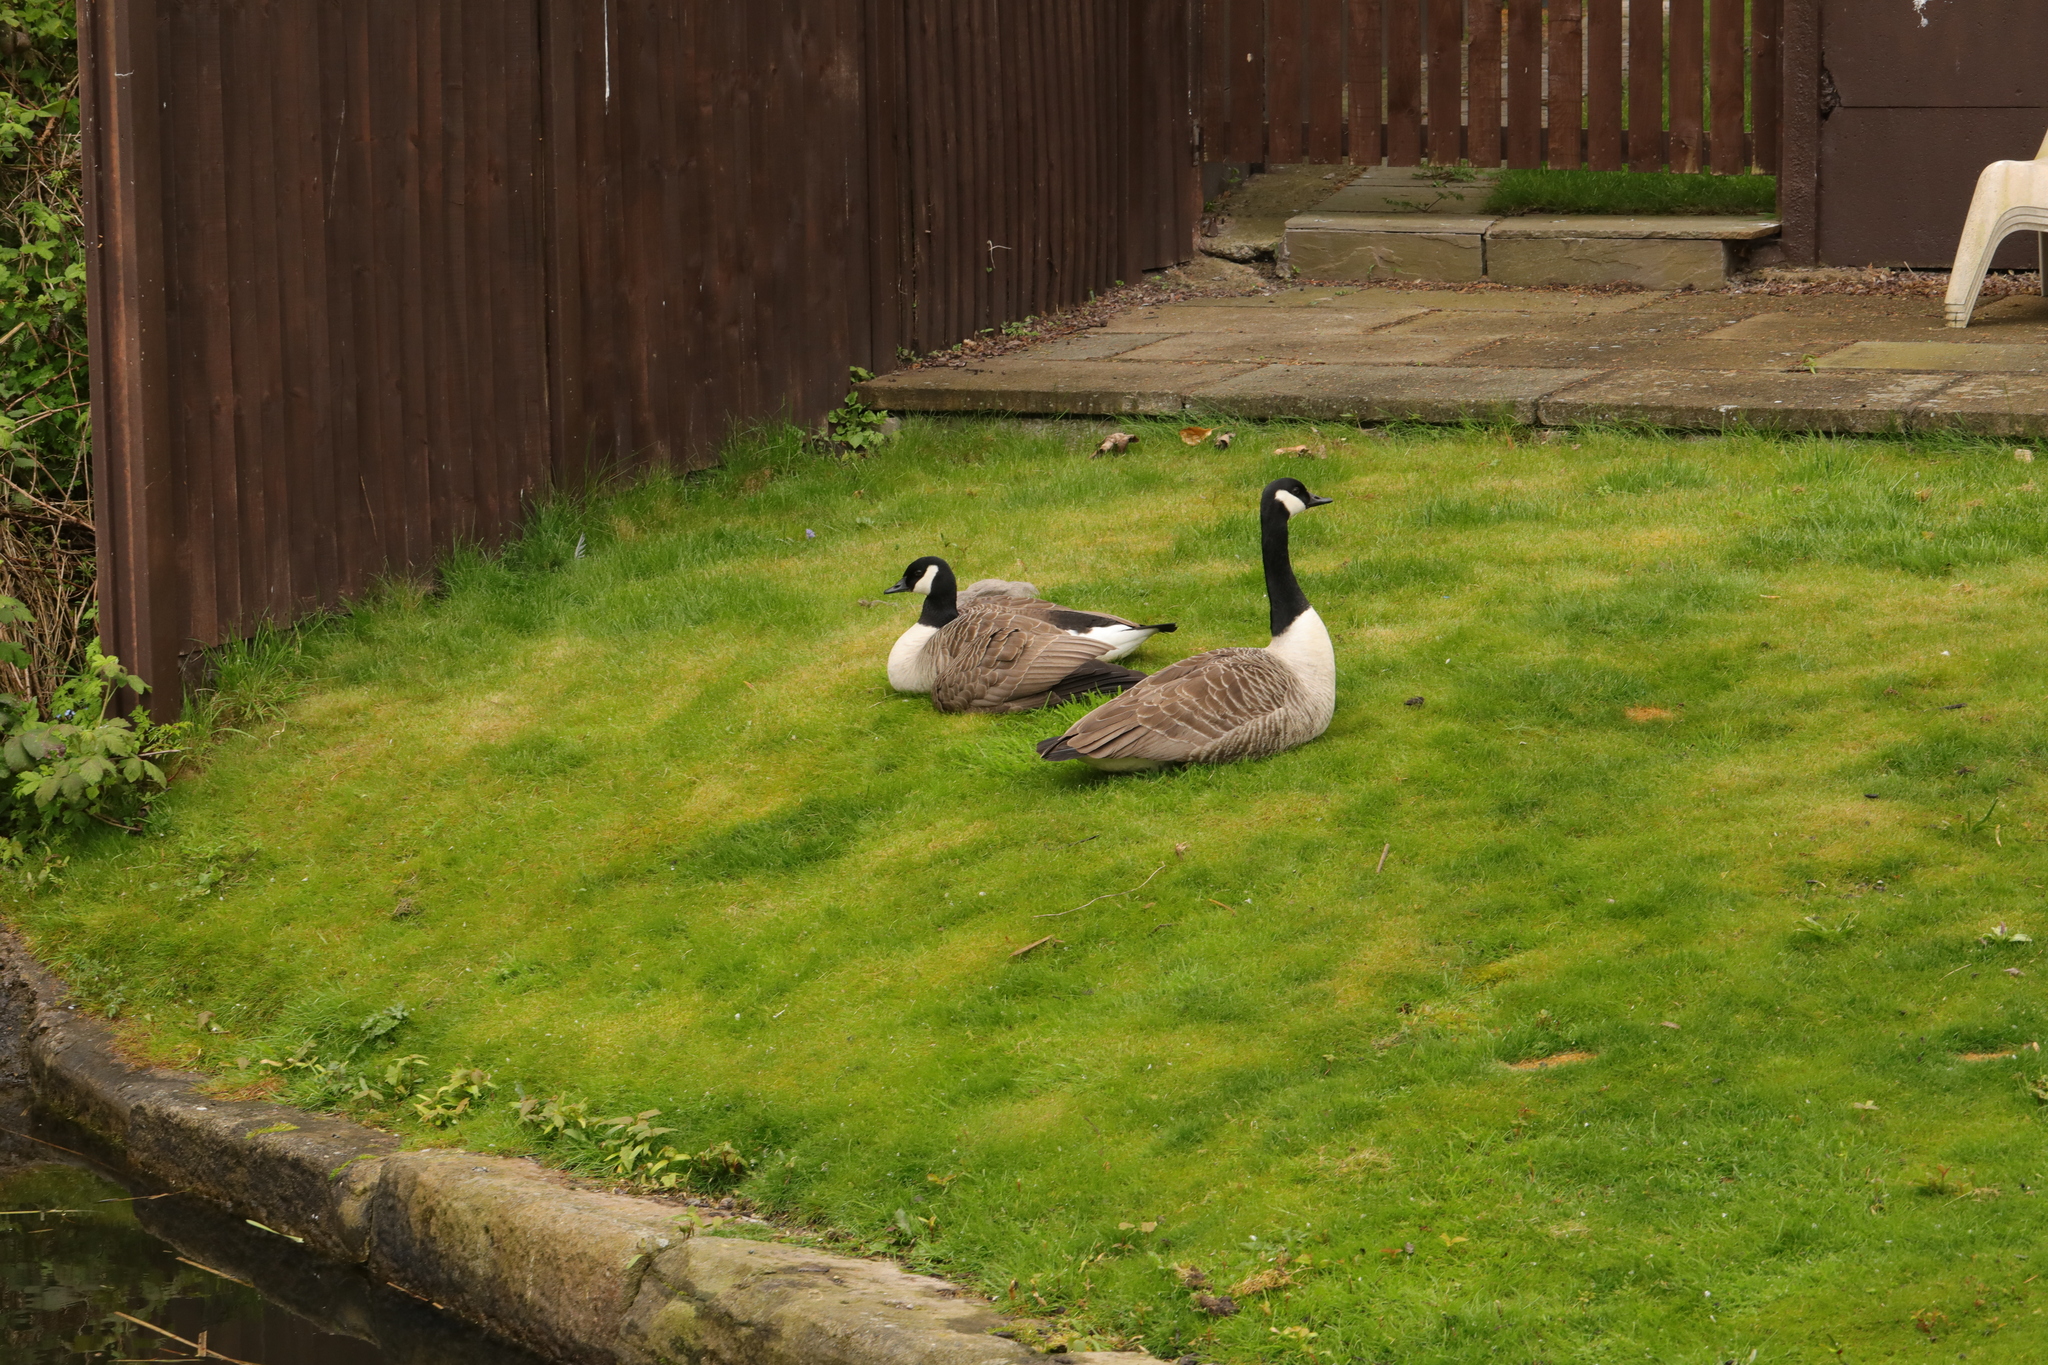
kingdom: Animalia
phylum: Chordata
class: Aves
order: Anseriformes
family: Anatidae
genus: Branta
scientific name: Branta canadensis
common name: Canada goose
